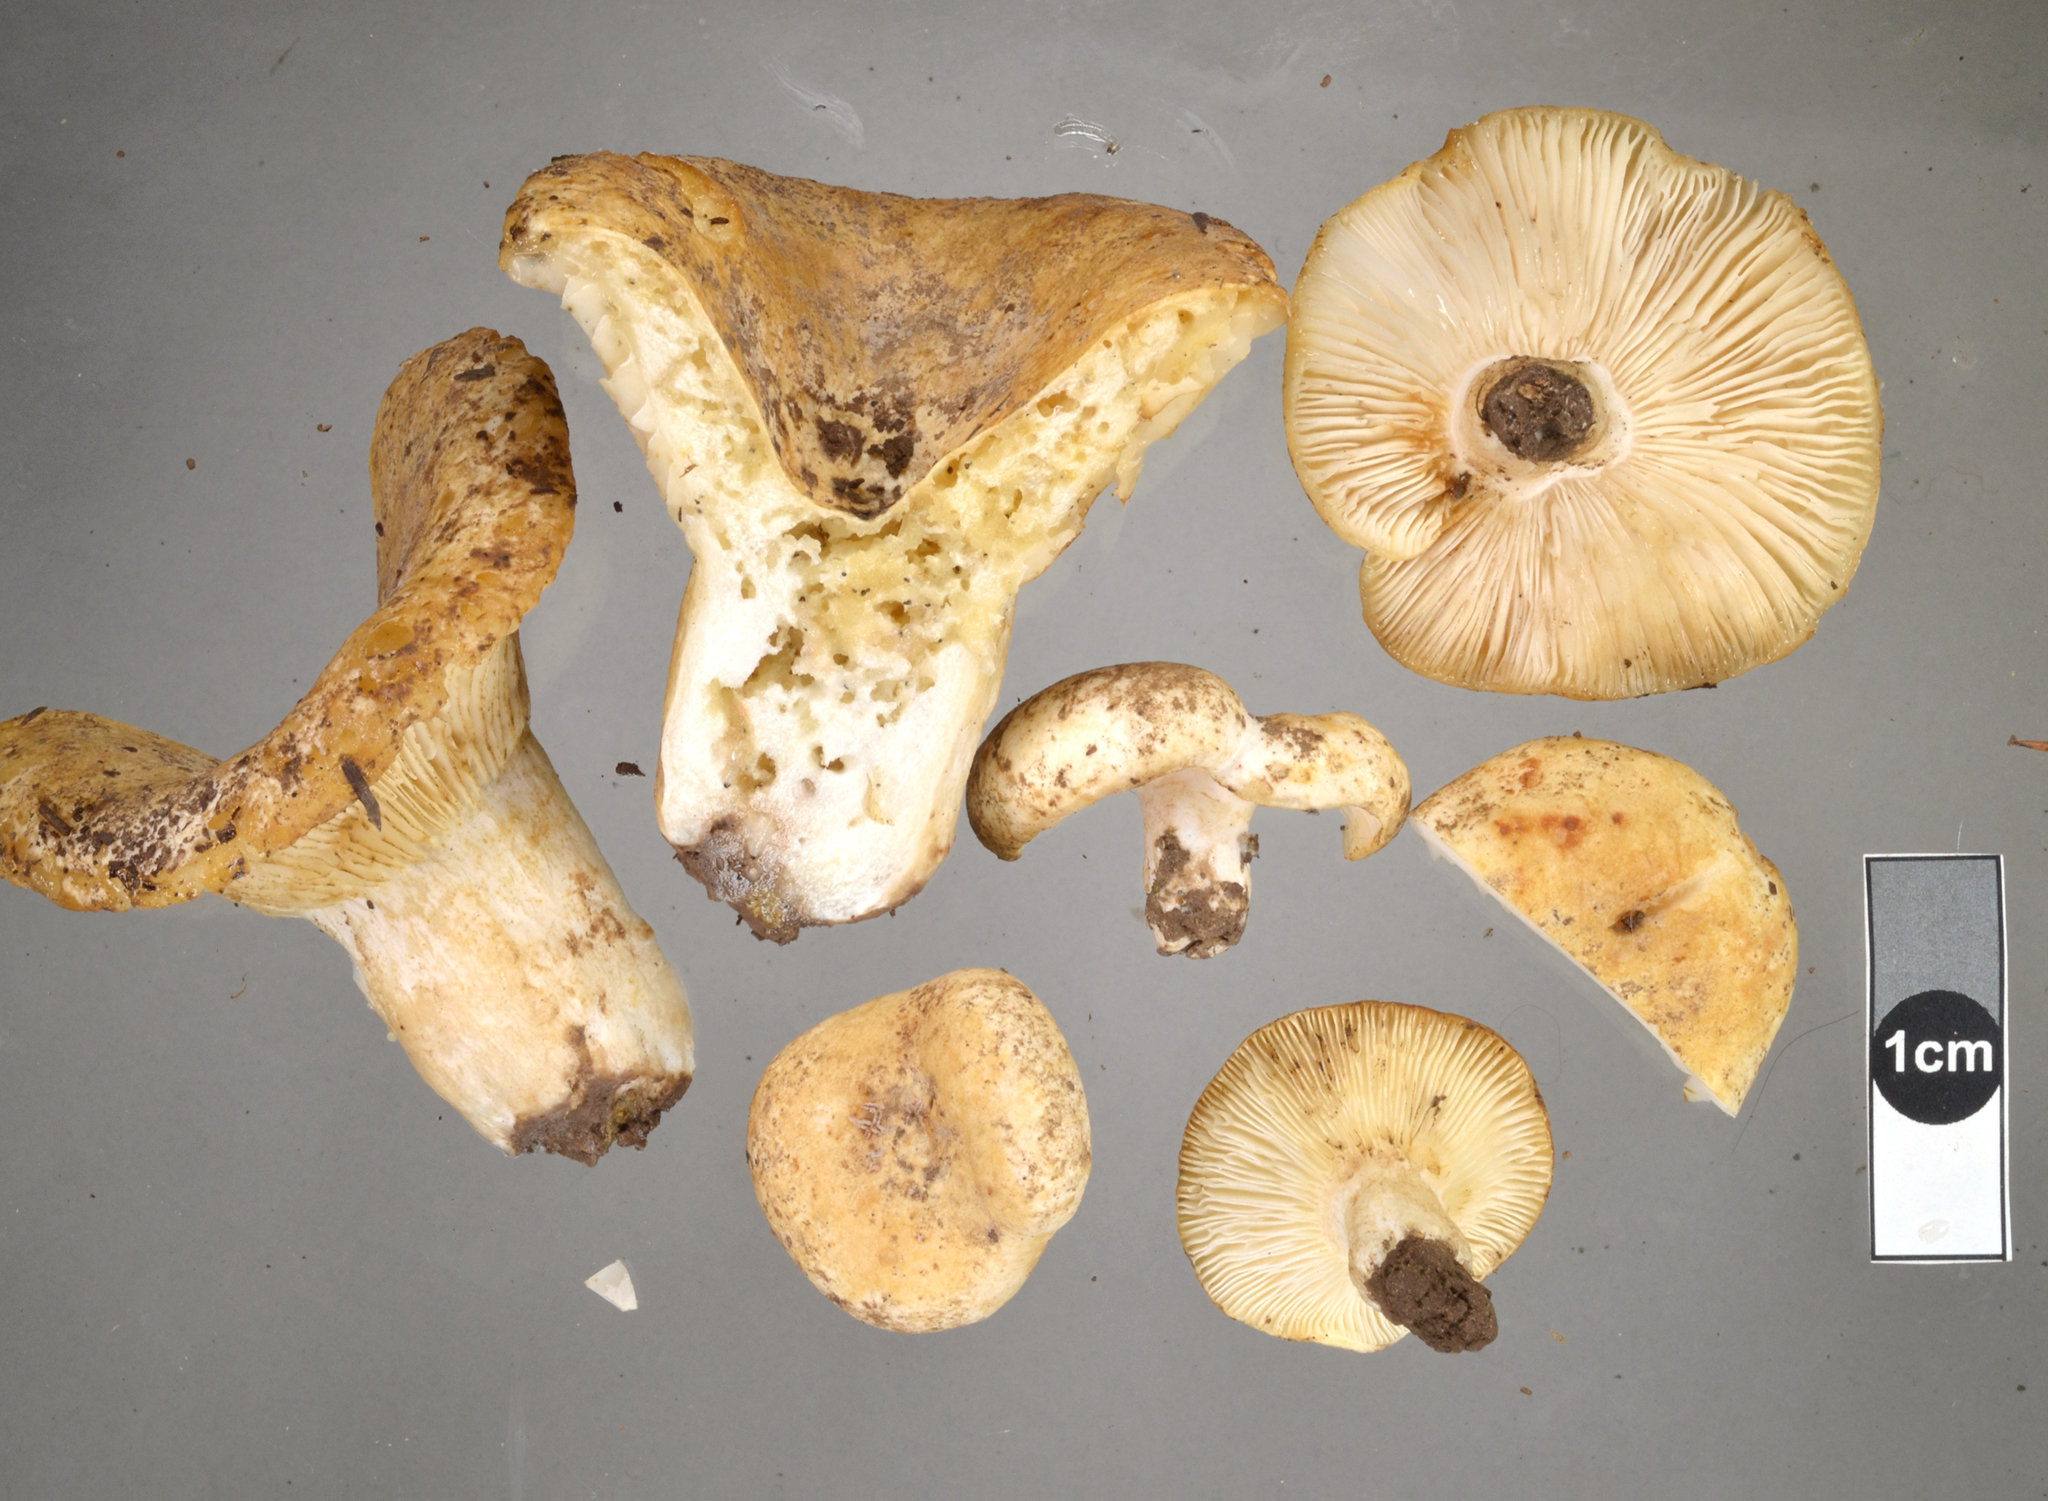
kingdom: Fungi
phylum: Basidiomycota
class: Agaricomycetes
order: Russulales
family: Russulaceae
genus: Russula
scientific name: Russula allochroa
